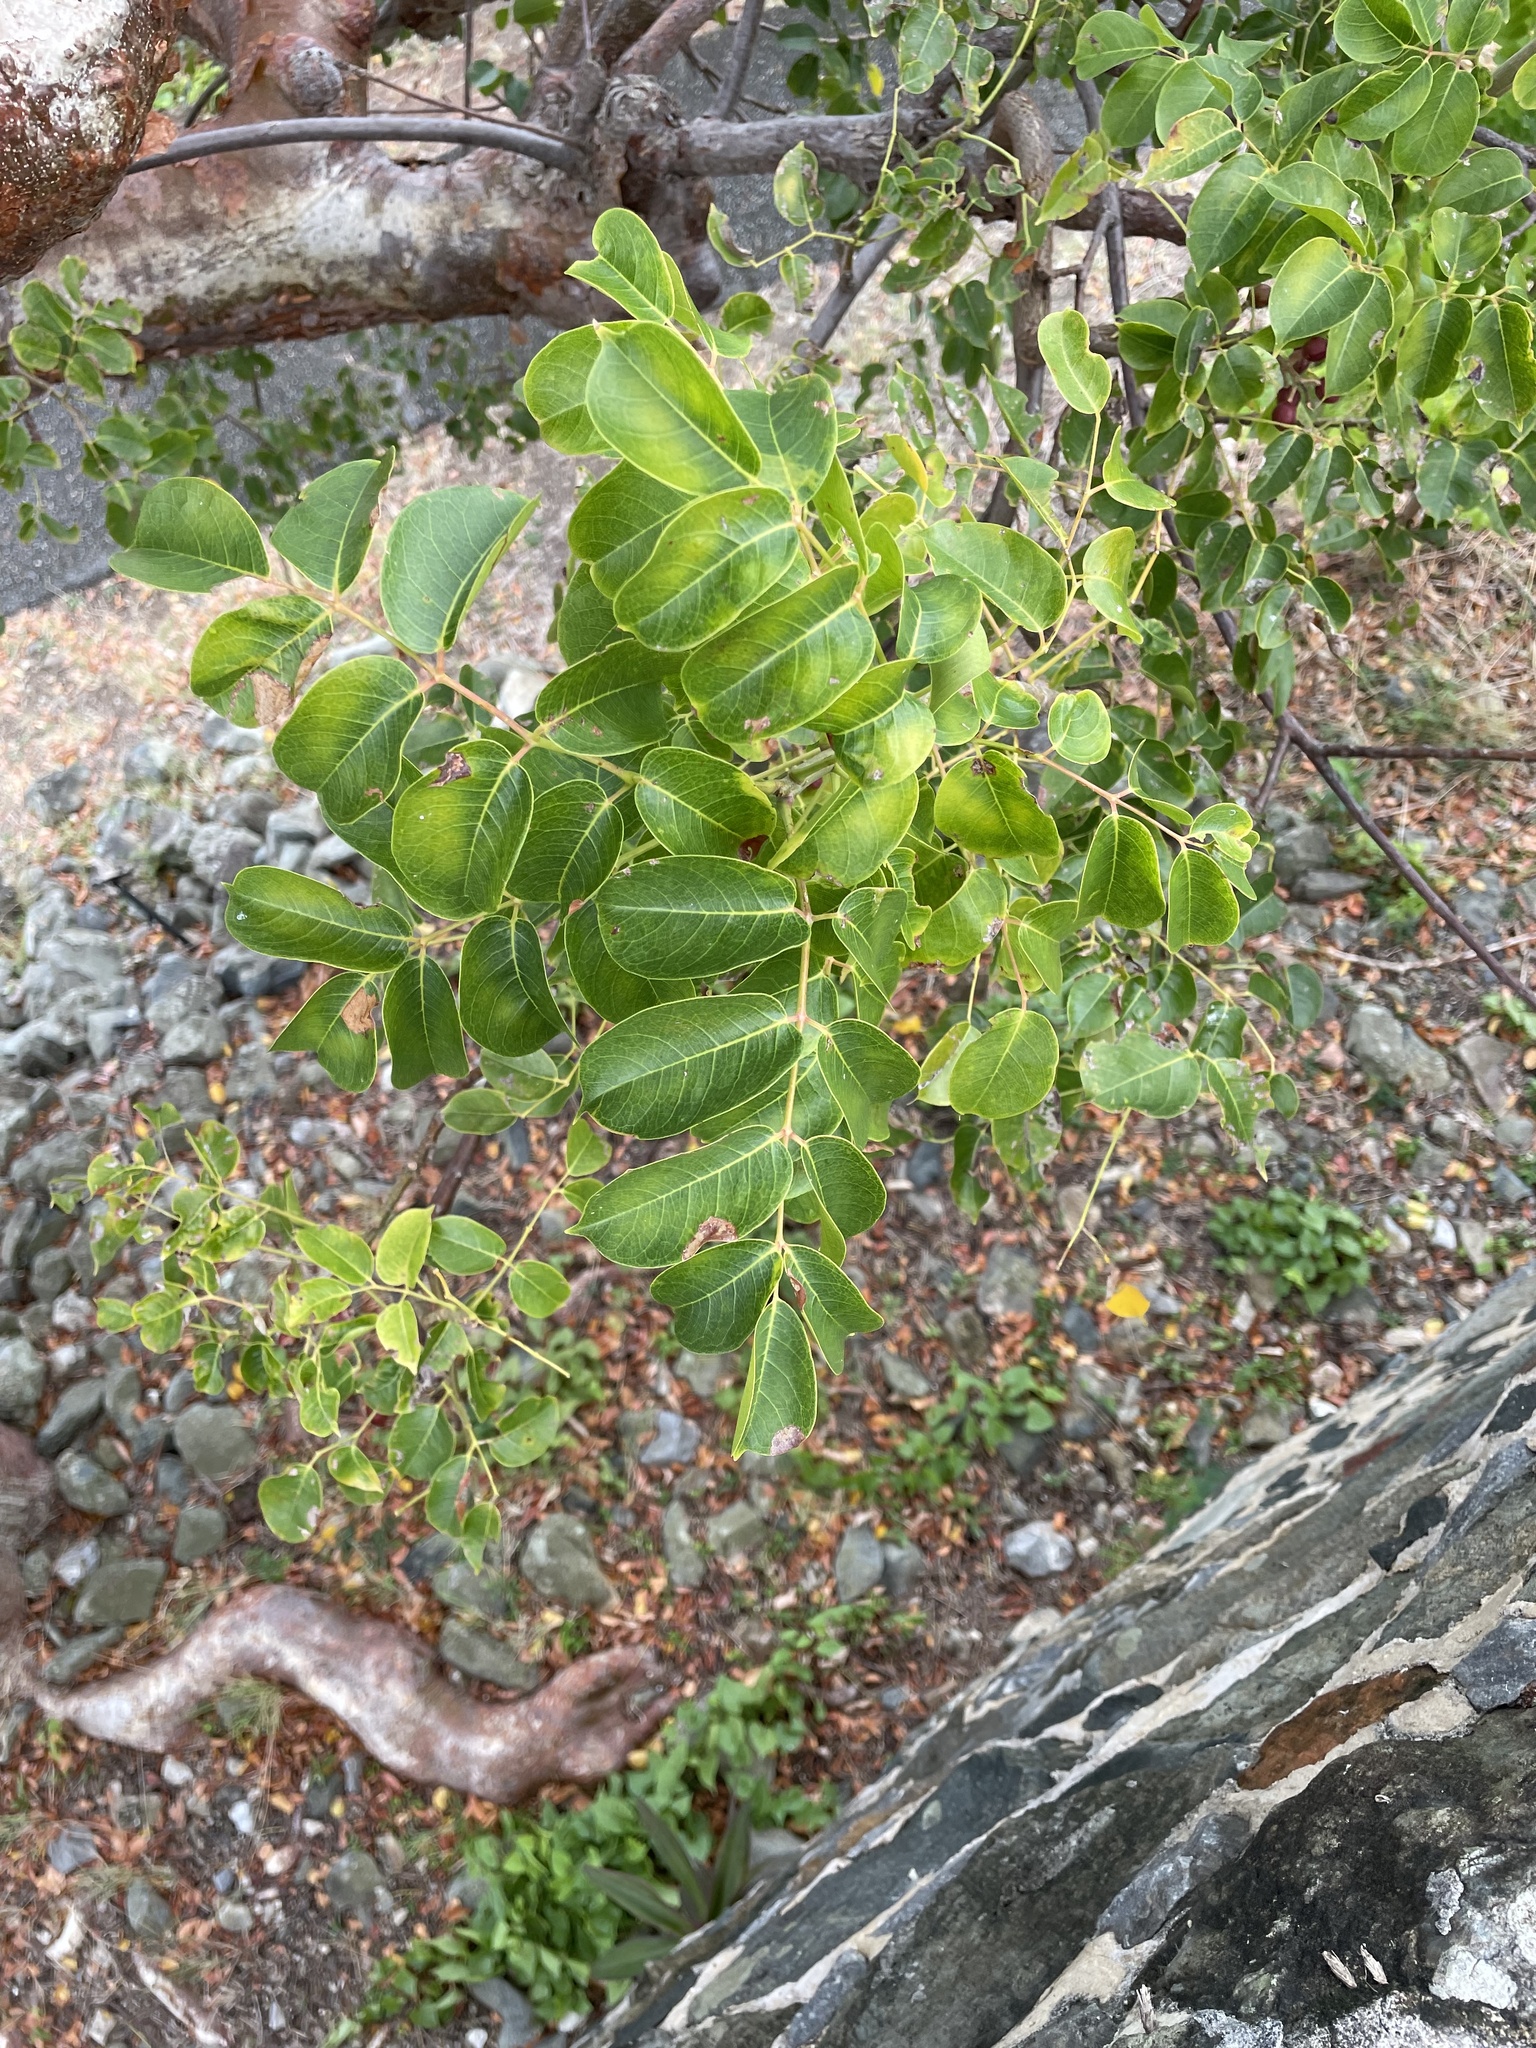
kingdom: Plantae
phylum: Tracheophyta
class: Magnoliopsida
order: Sapindales
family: Burseraceae
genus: Bursera
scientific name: Bursera simaruba
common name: Turpentine tree
